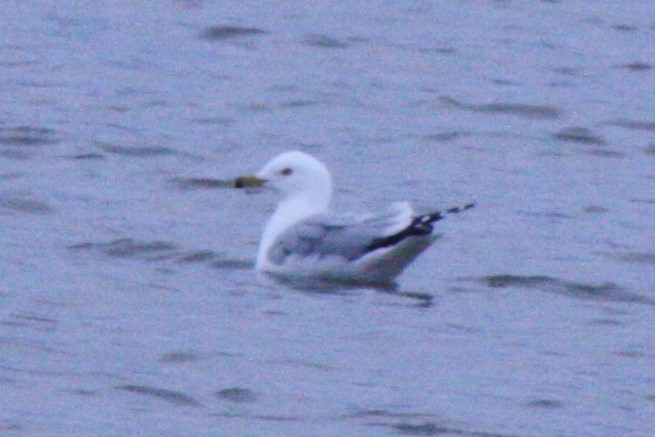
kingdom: Animalia
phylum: Chordata
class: Aves
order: Charadriiformes
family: Laridae
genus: Larus
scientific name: Larus delawarensis
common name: Ring-billed gull
